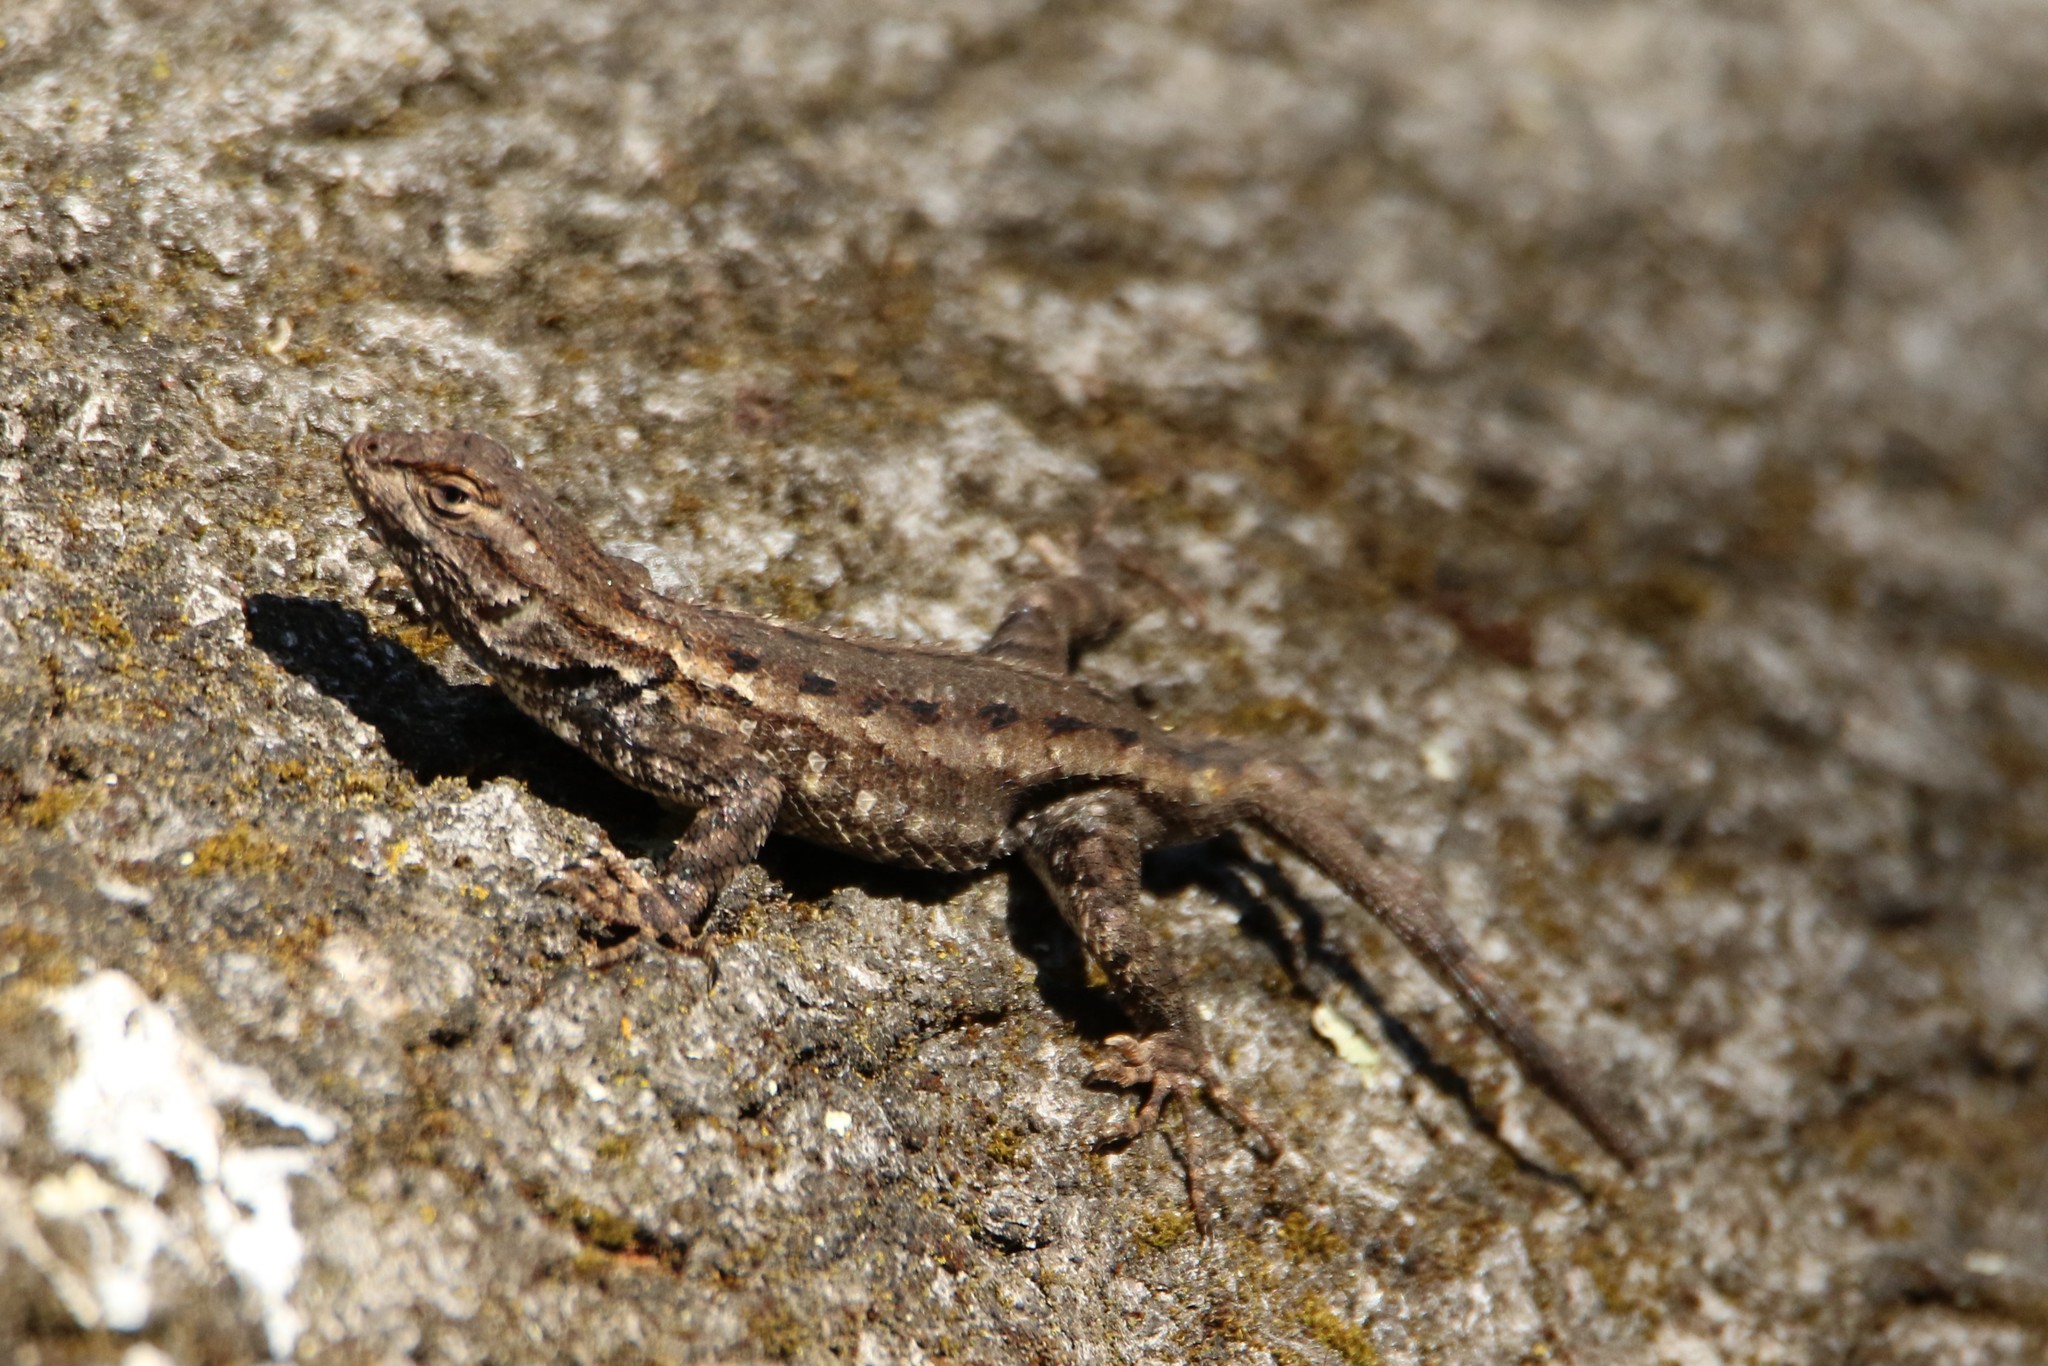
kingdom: Animalia
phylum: Chordata
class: Squamata
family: Phrynosomatidae
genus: Sceloporus
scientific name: Sceloporus occidentalis
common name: Western fence lizard
